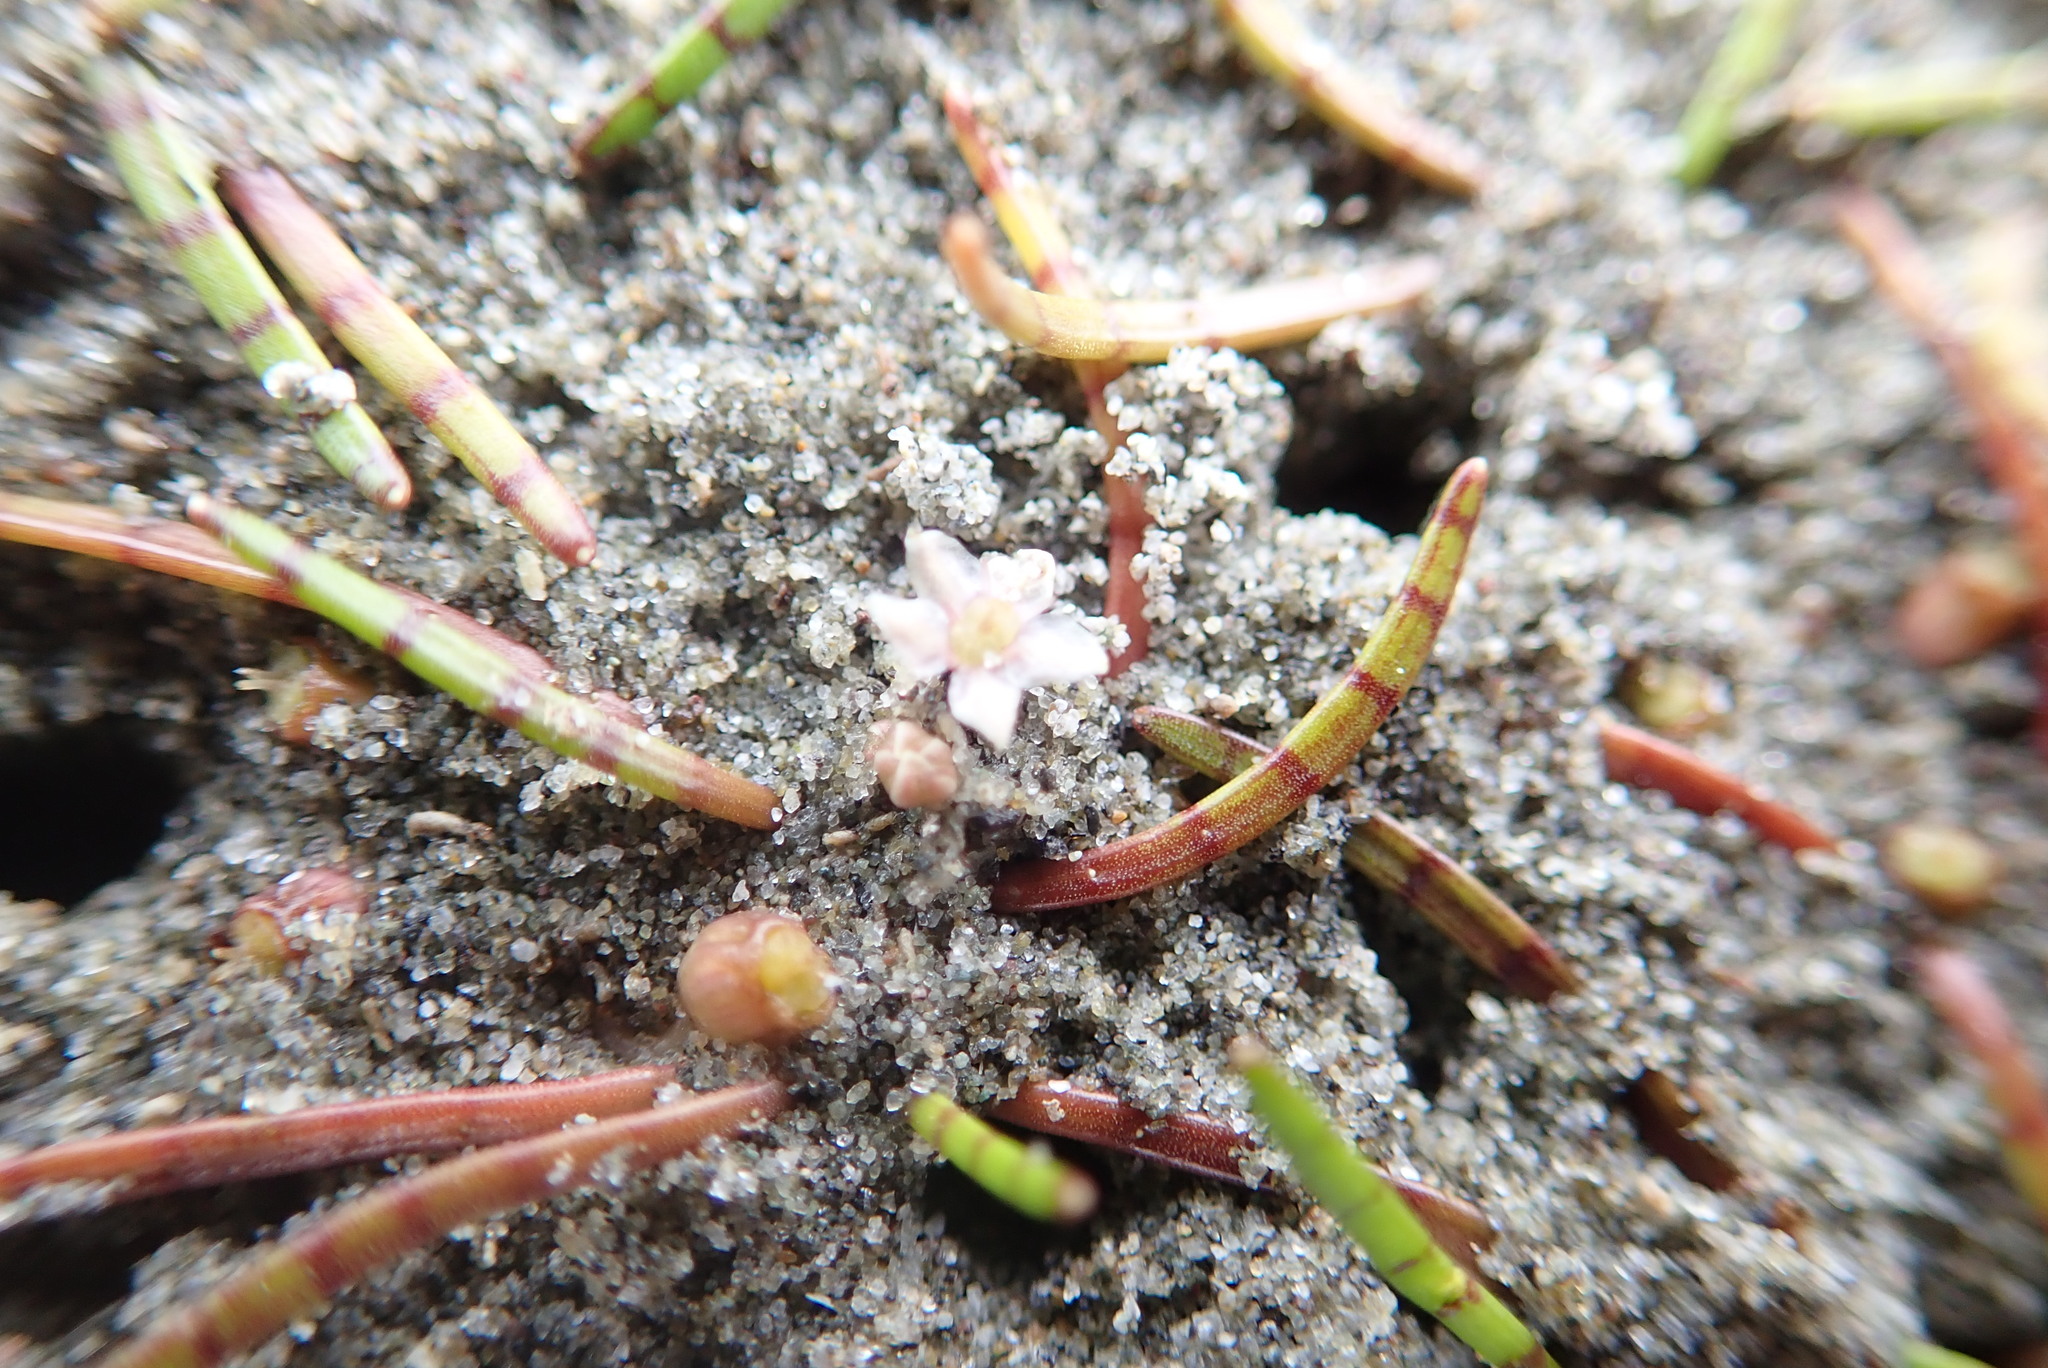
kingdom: Plantae
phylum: Tracheophyta
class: Magnoliopsida
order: Apiales
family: Apiaceae
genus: Lilaeopsis
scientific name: Lilaeopsis novae-zelandiae
